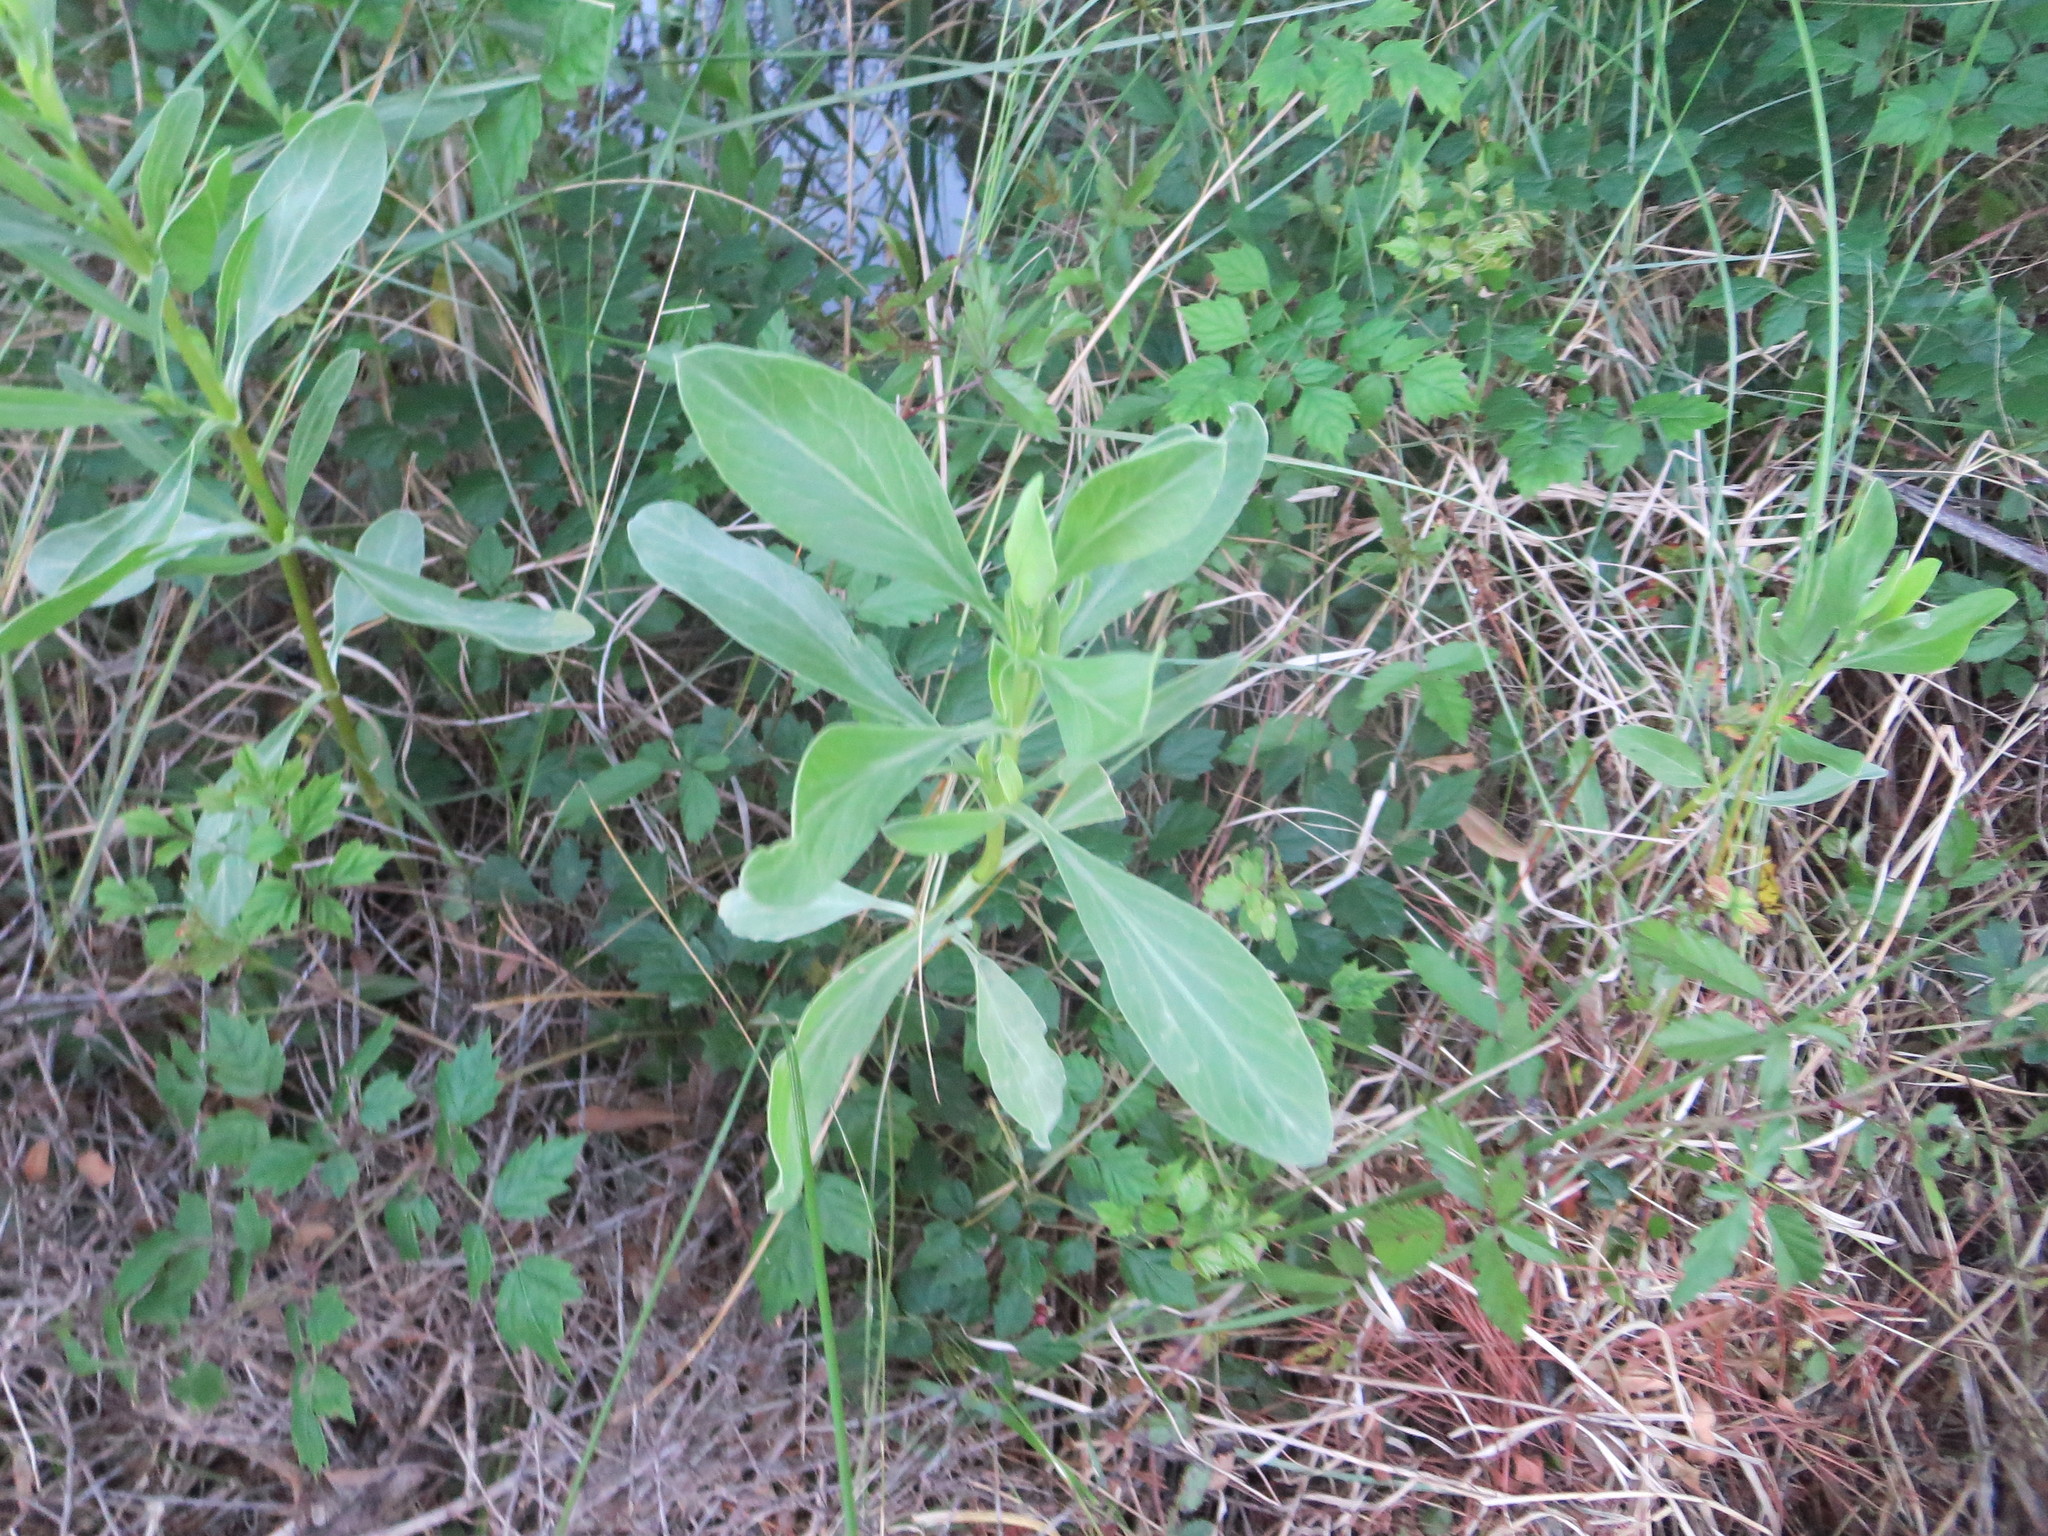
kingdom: Plantae
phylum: Tracheophyta
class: Magnoliopsida
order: Asterales
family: Asteraceae
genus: Borrichia
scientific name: Borrichia frutescens
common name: Sea oxeye
